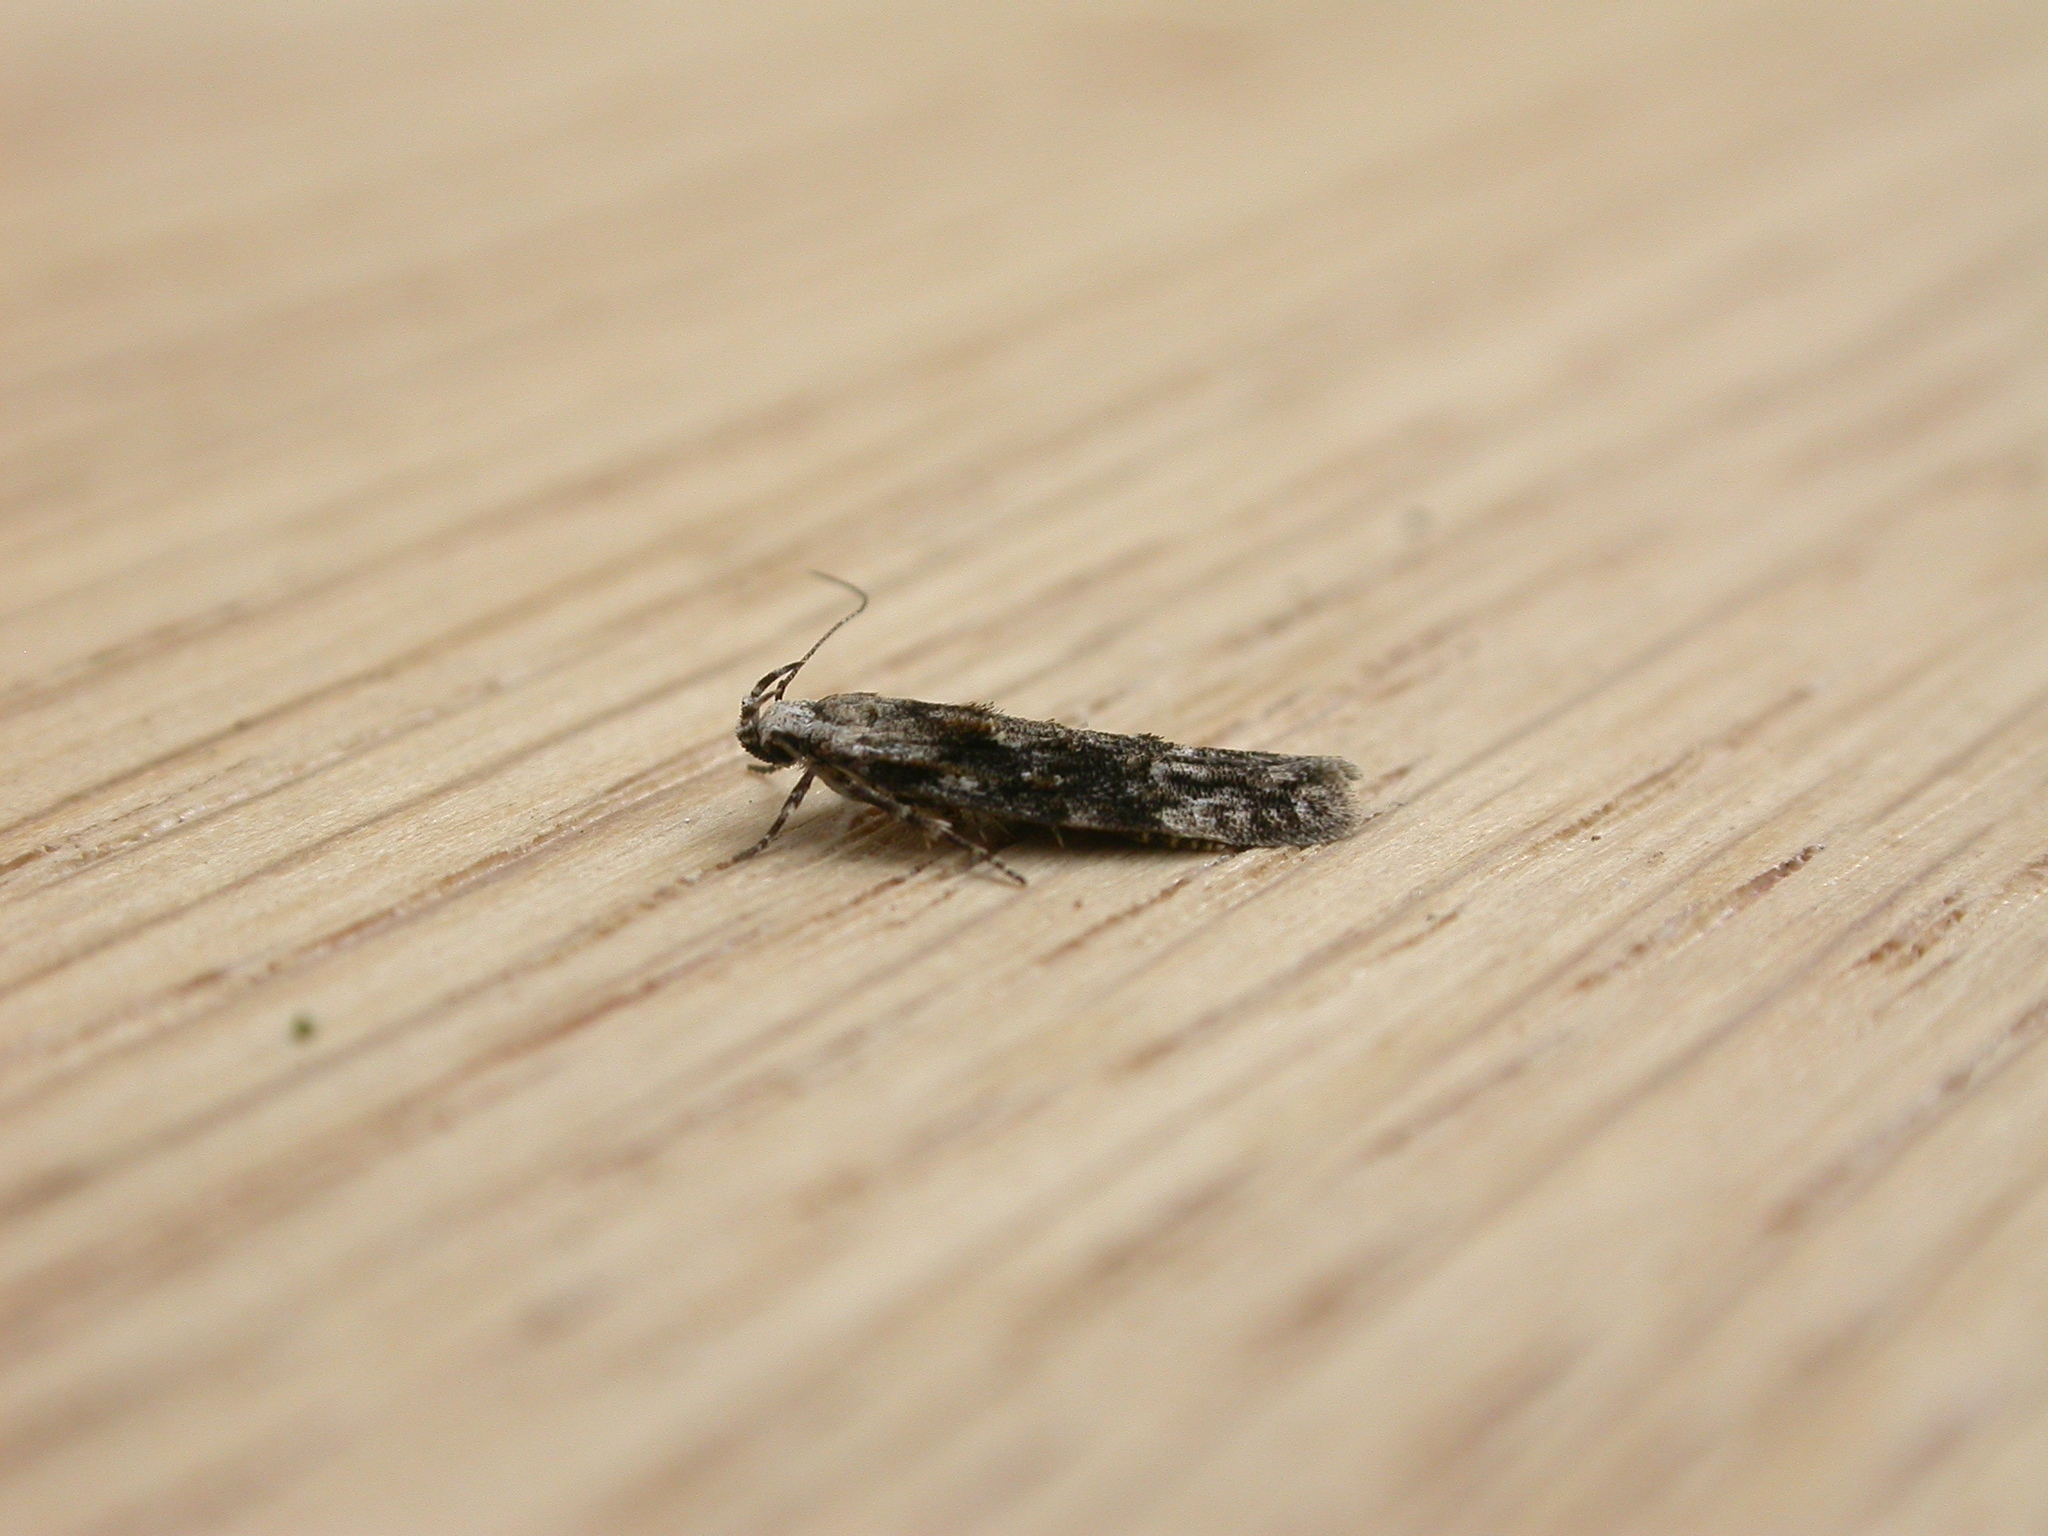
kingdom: Animalia
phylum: Arthropoda
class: Insecta
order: Lepidoptera
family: Gelechiidae
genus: Carpatolechia
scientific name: Carpatolechia fugitivella
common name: Elm groundling
